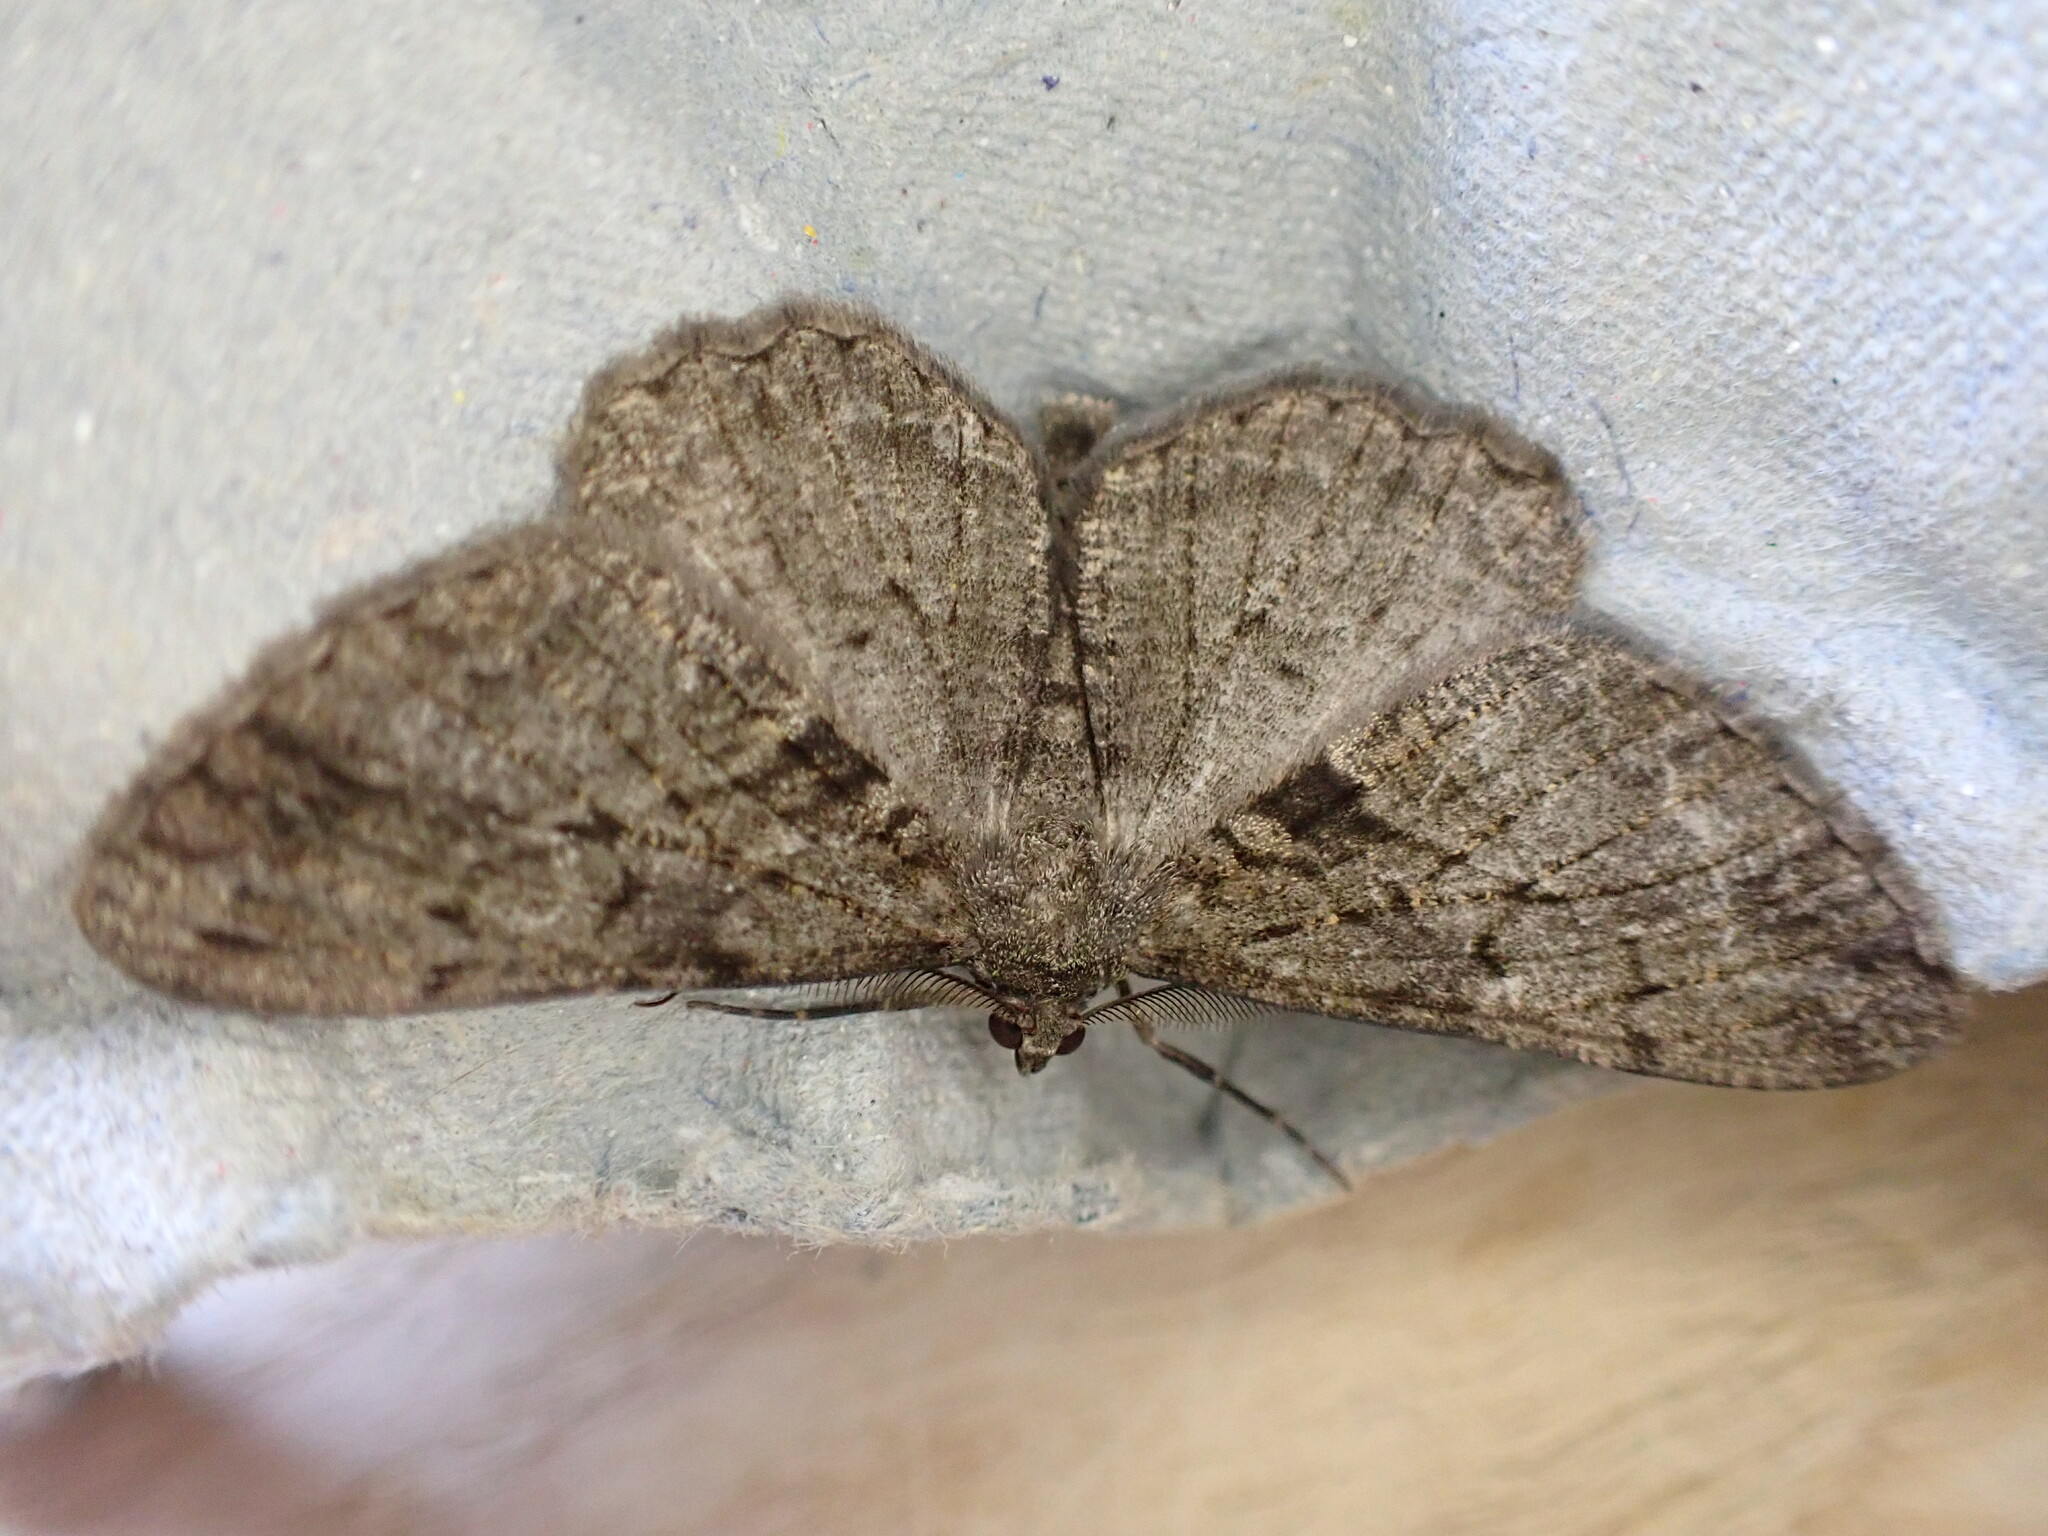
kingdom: Animalia
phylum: Arthropoda
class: Insecta
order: Lepidoptera
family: Geometridae
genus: Peribatodes
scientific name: Peribatodes rhomboidaria
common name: Willow beauty
